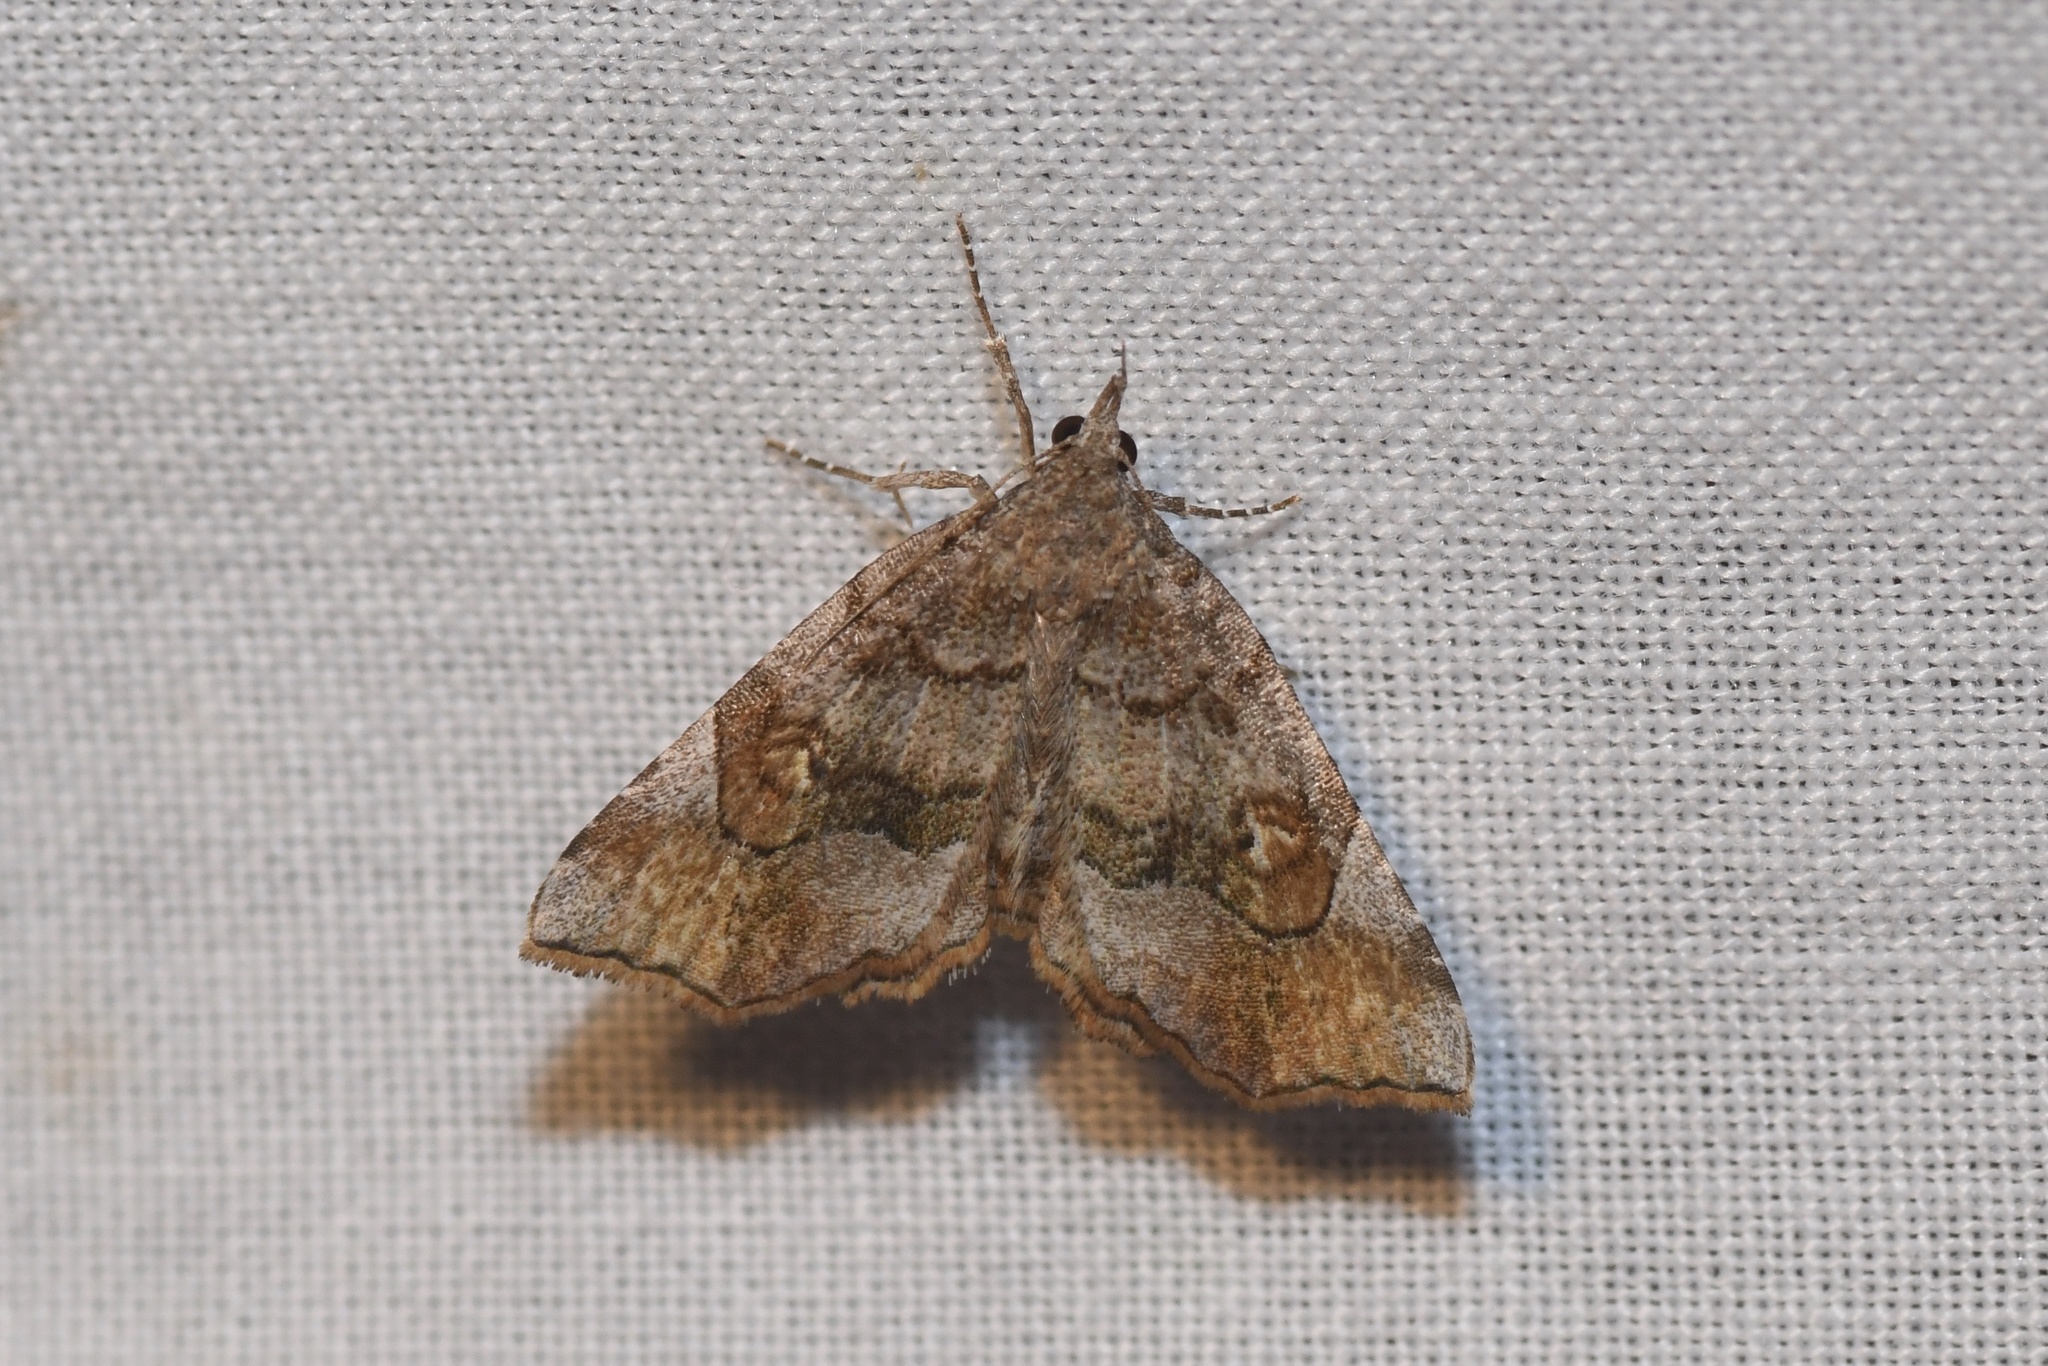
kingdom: Animalia
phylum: Arthropoda
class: Insecta
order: Lepidoptera
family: Erebidae
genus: Pangrapta
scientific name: Pangrapta decoralis
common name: Decorated owlet
